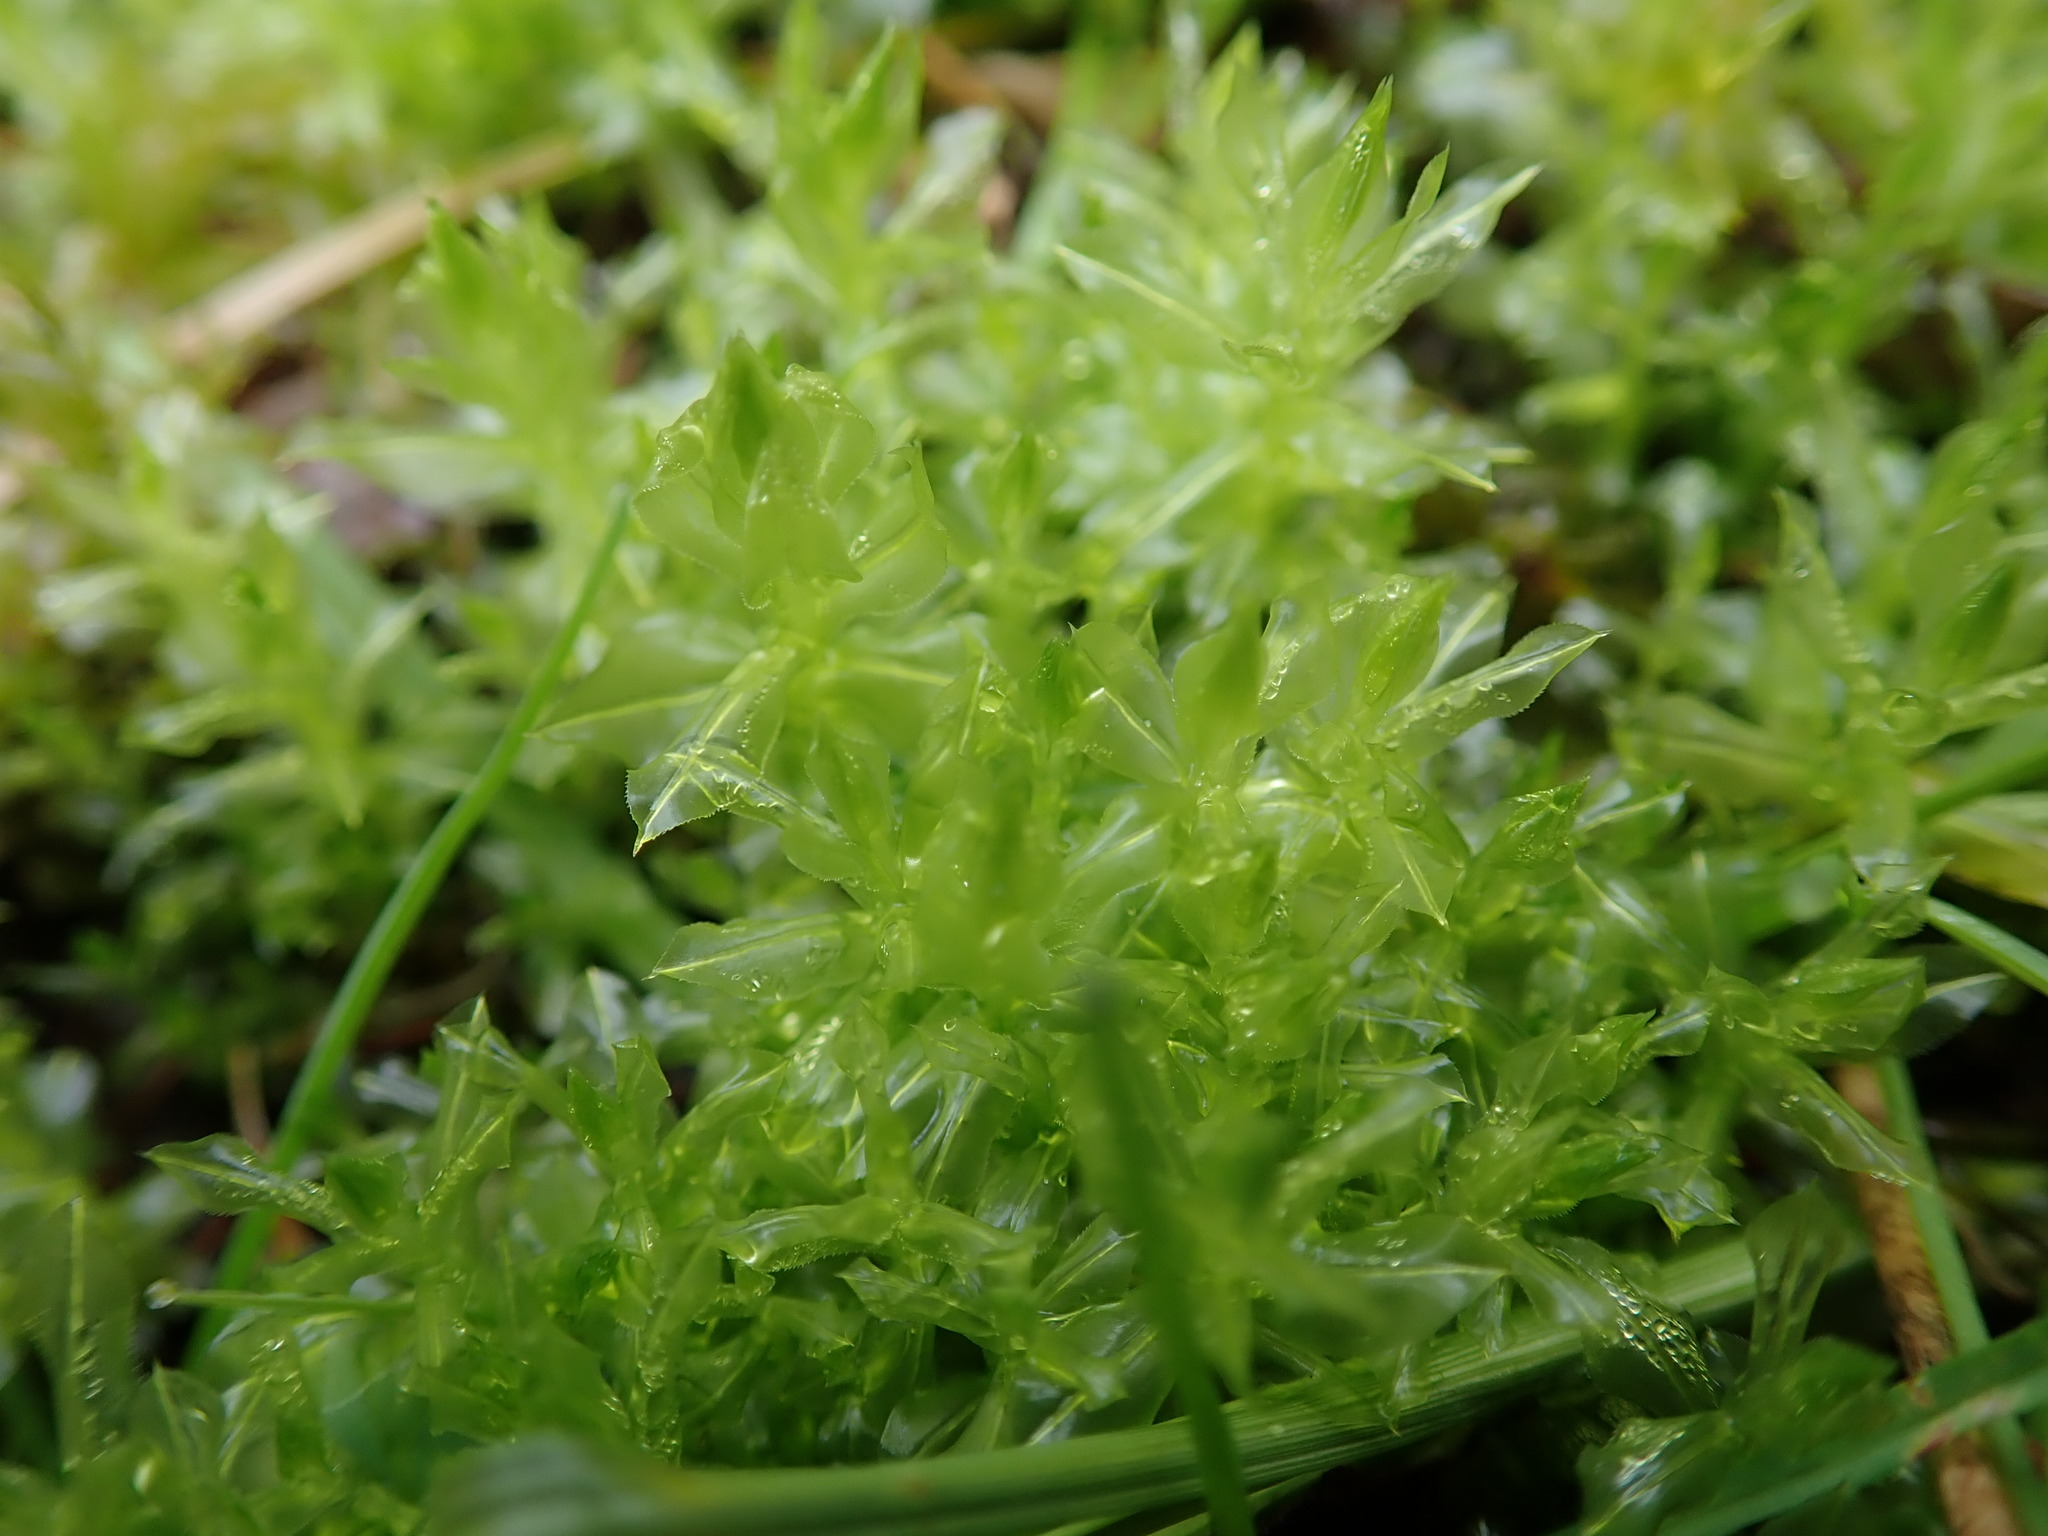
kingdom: Plantae
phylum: Bryophyta
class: Bryopsida
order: Bryales
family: Mniaceae
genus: Plagiomnium
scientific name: Plagiomnium insigne
